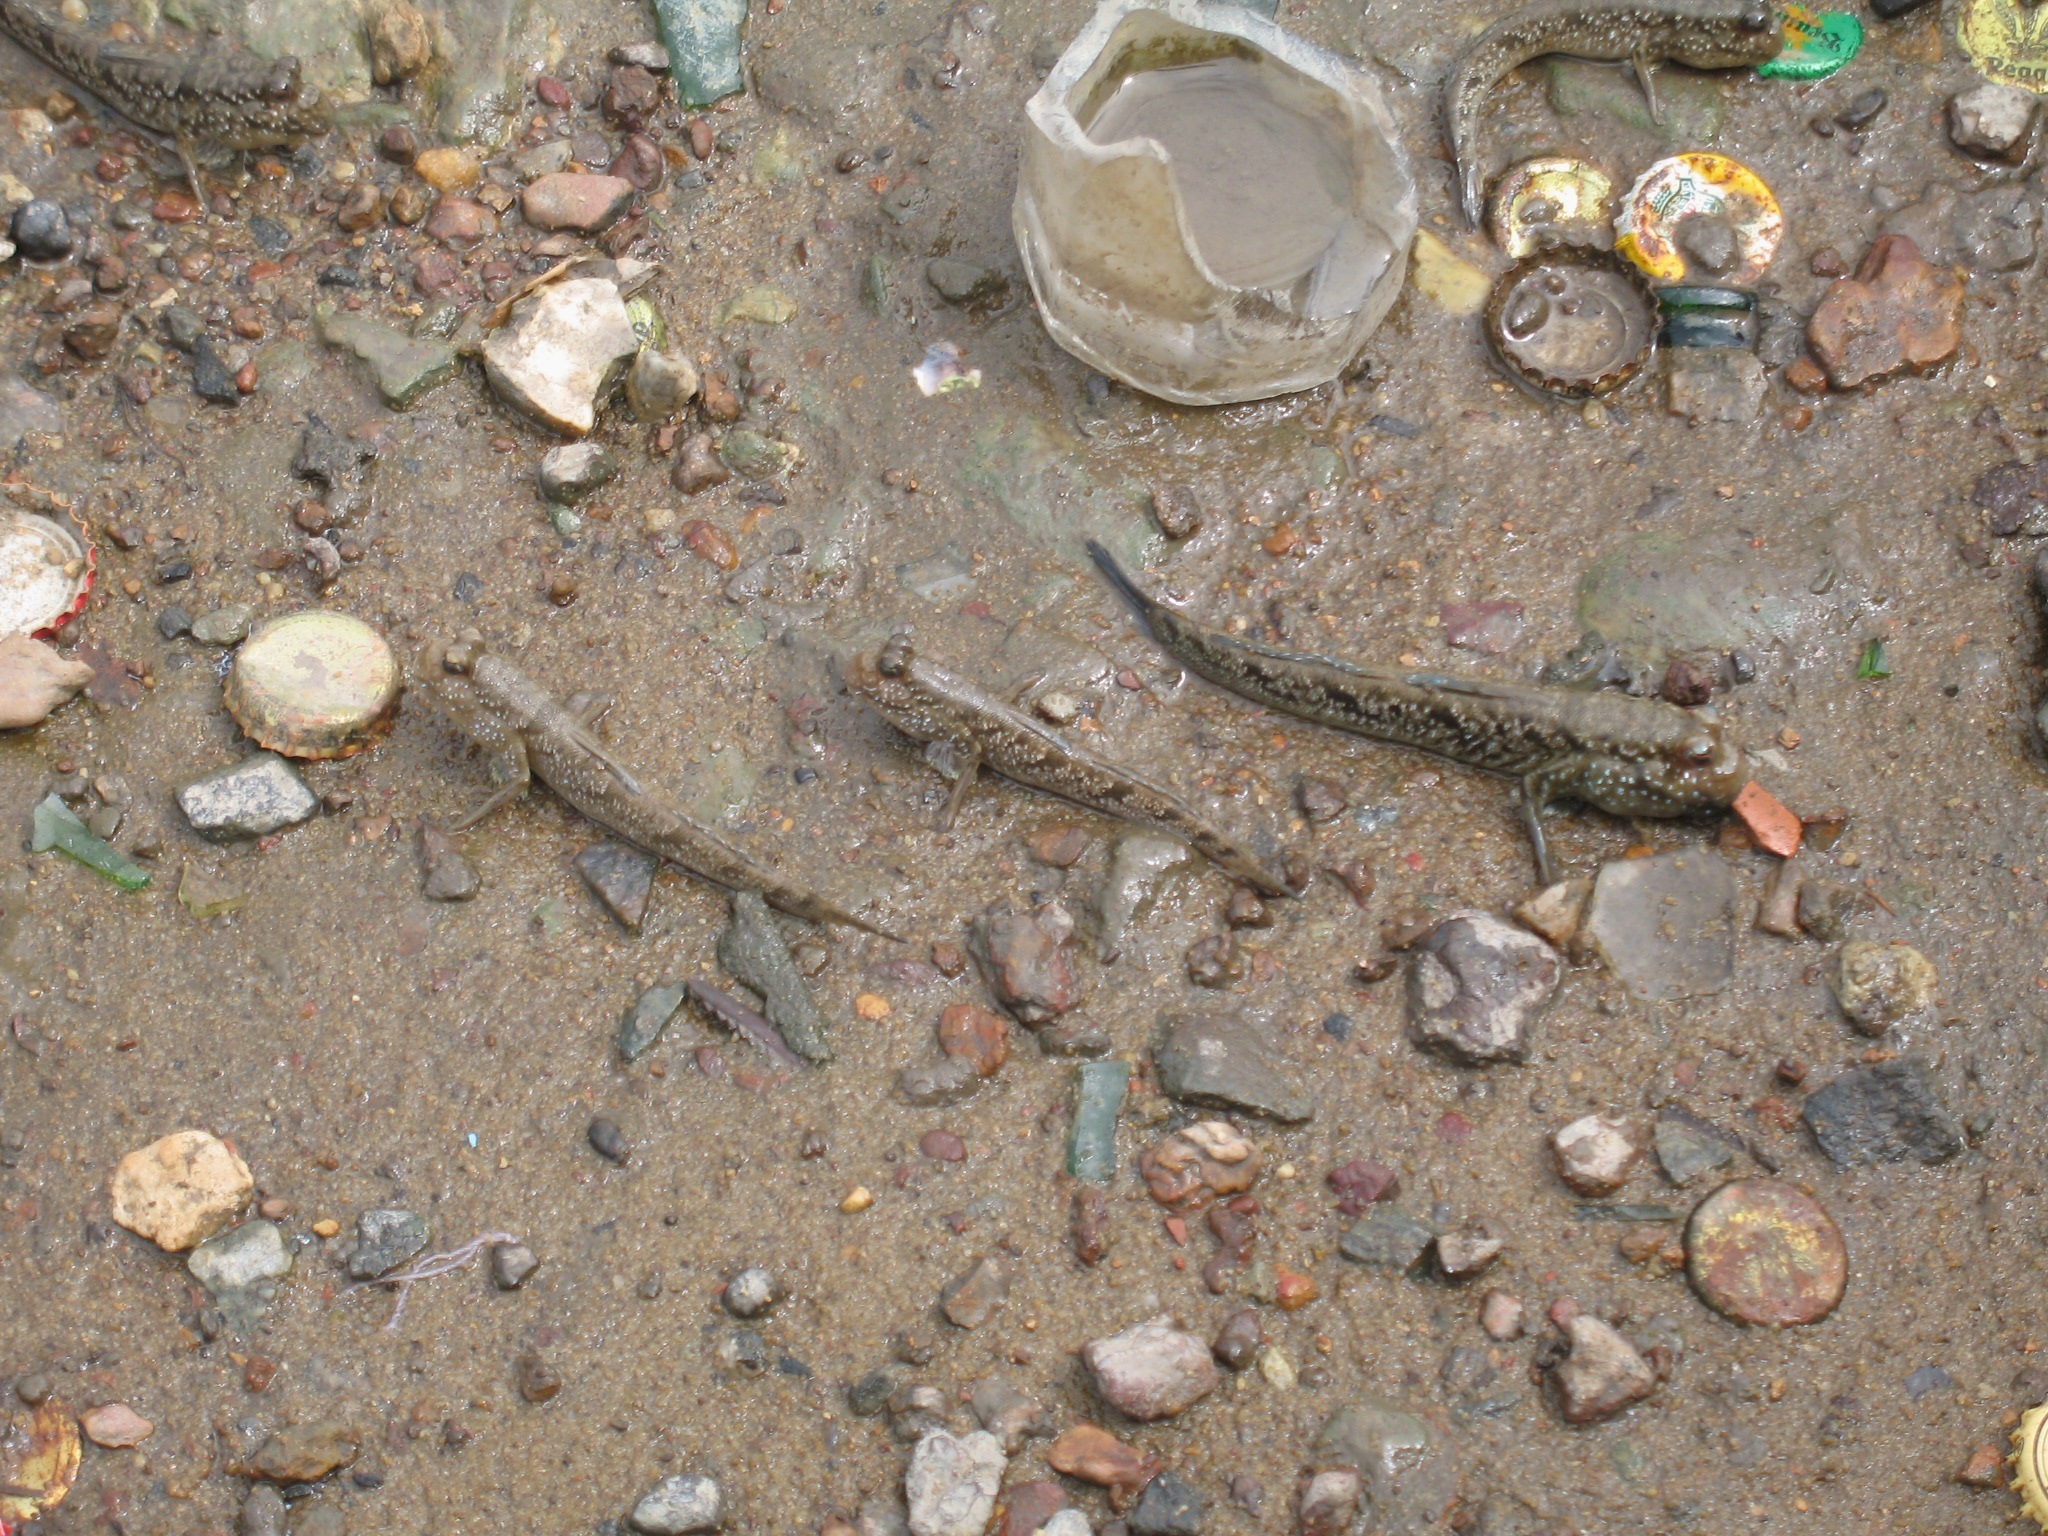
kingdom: Animalia
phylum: Chordata
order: Perciformes
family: Gobiidae
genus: Periophthalmus
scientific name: Periophthalmus barbarus
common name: Atlantic mudskipper
